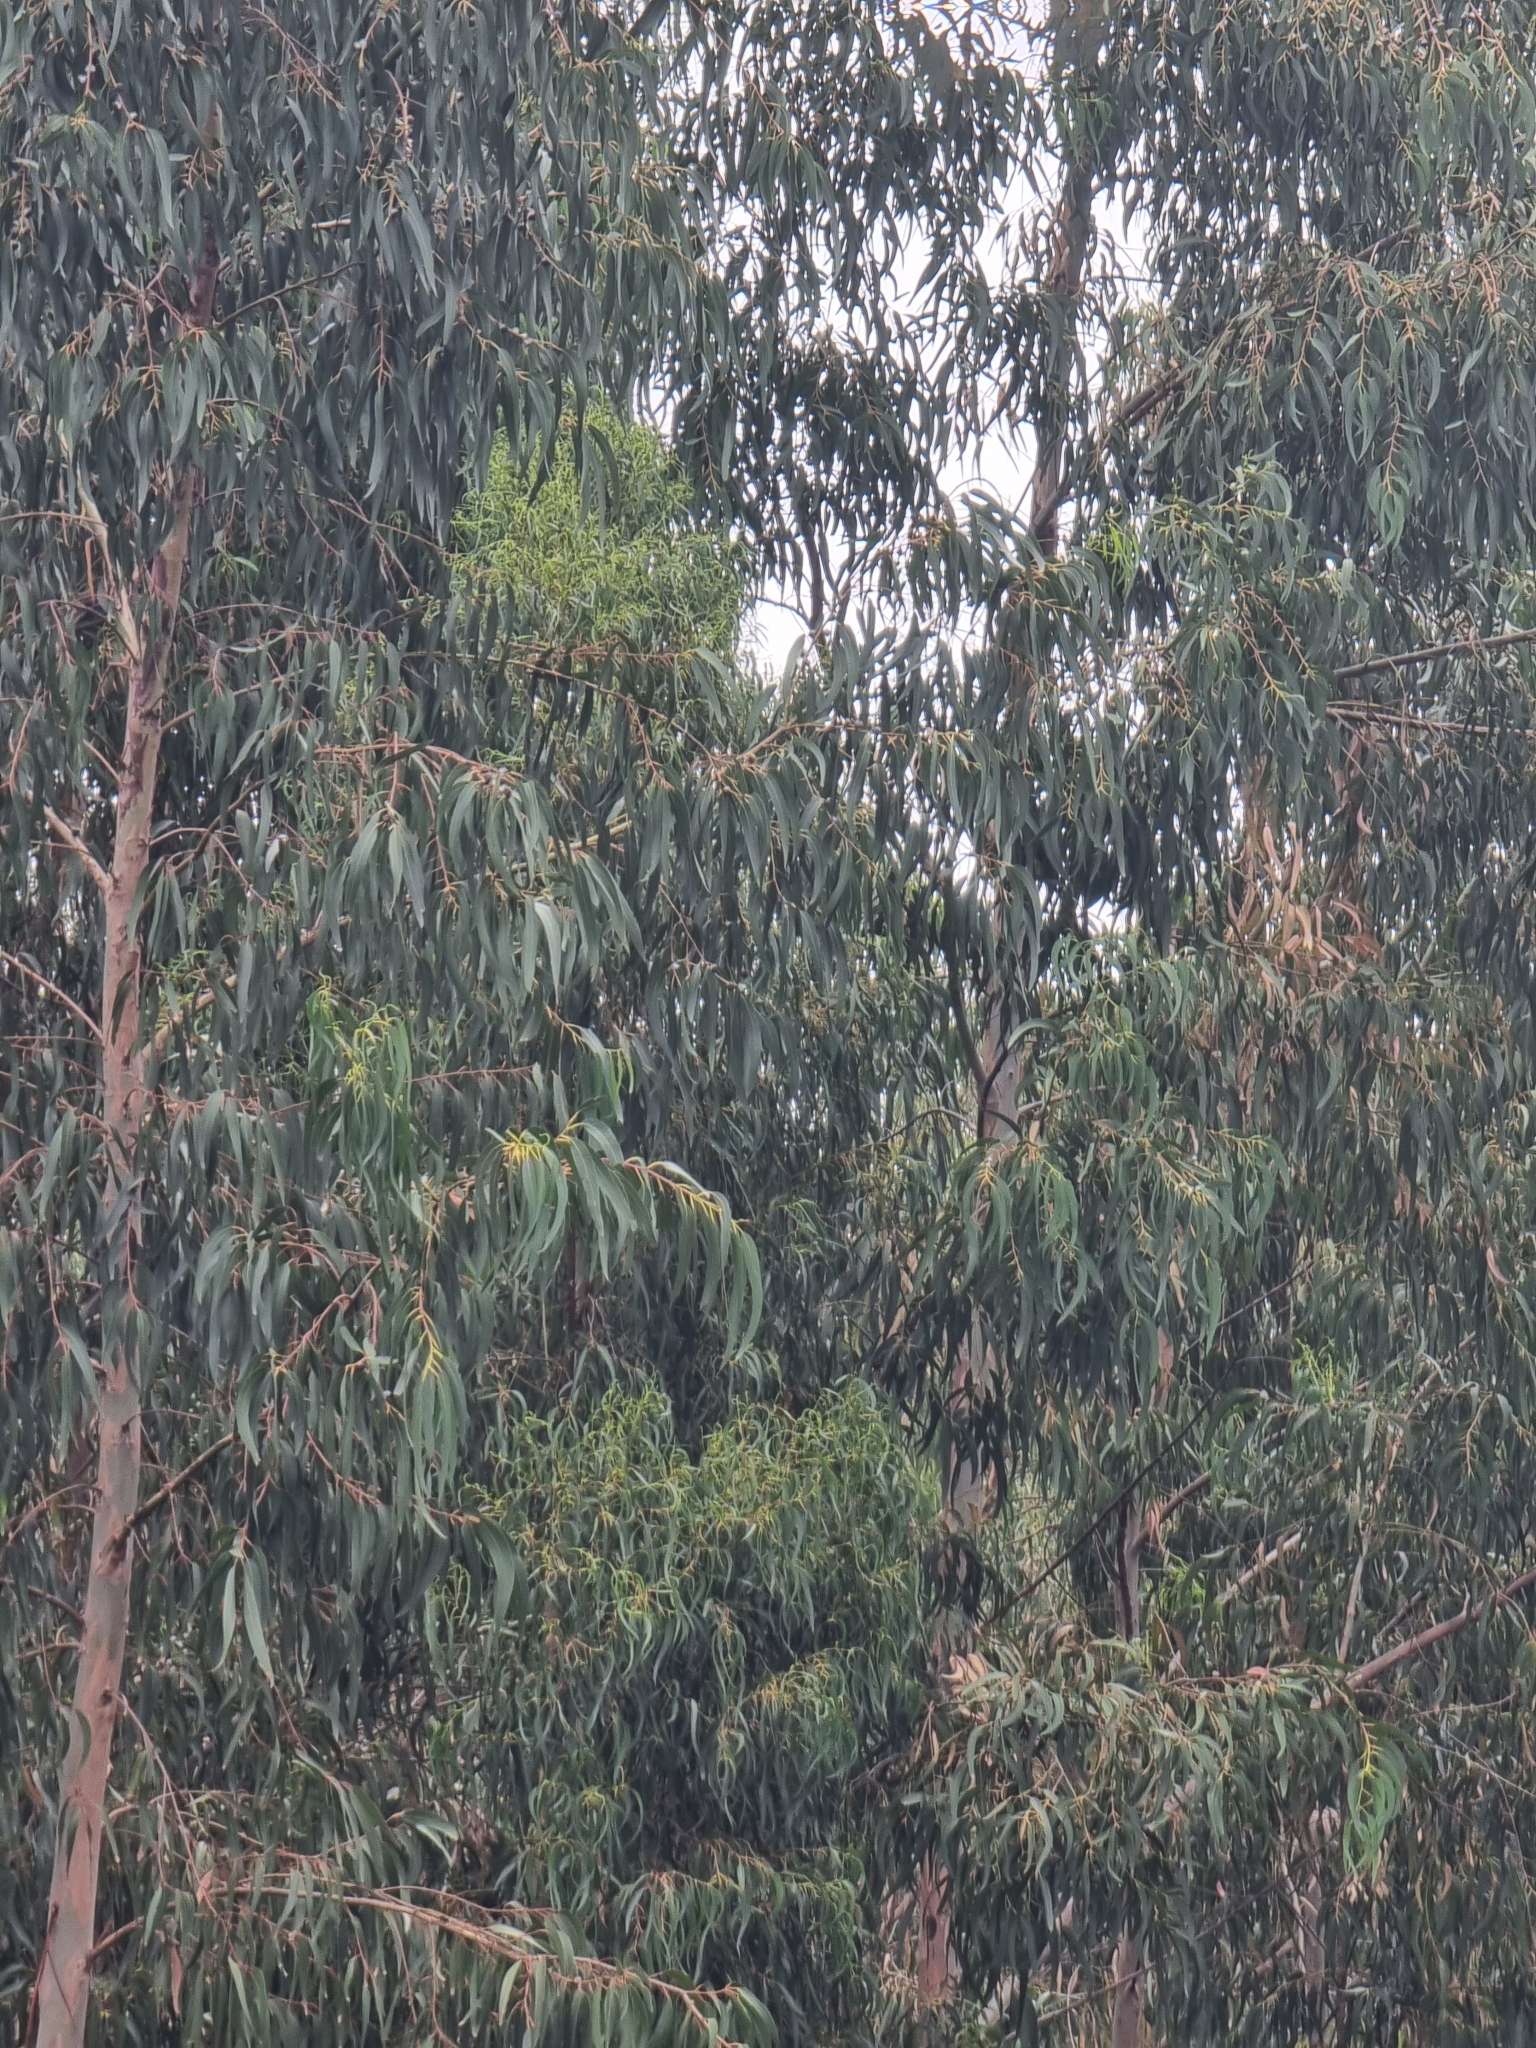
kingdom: Plantae
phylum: Tracheophyta
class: Magnoliopsida
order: Myrtales
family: Myrtaceae
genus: Eucalyptus
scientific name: Eucalyptus globulus
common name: Southern blue-gum
